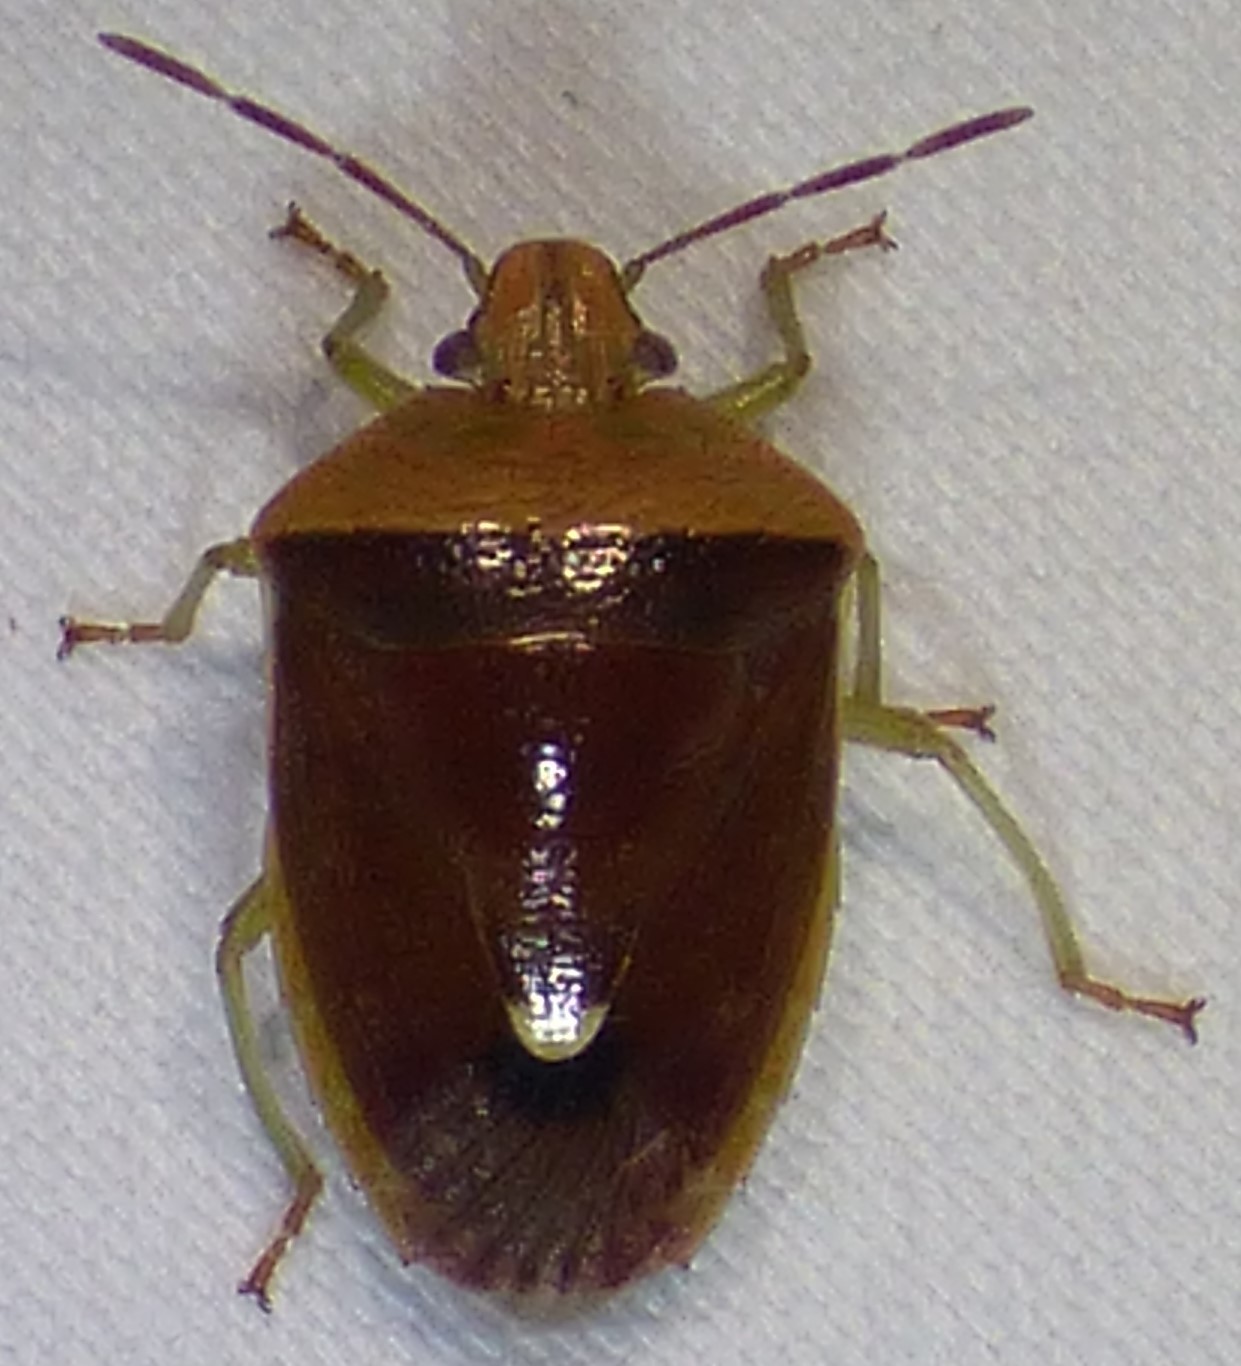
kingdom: Animalia
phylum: Arthropoda
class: Insecta
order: Hemiptera
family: Pentatomidae
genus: Banasa
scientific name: Banasa calva
